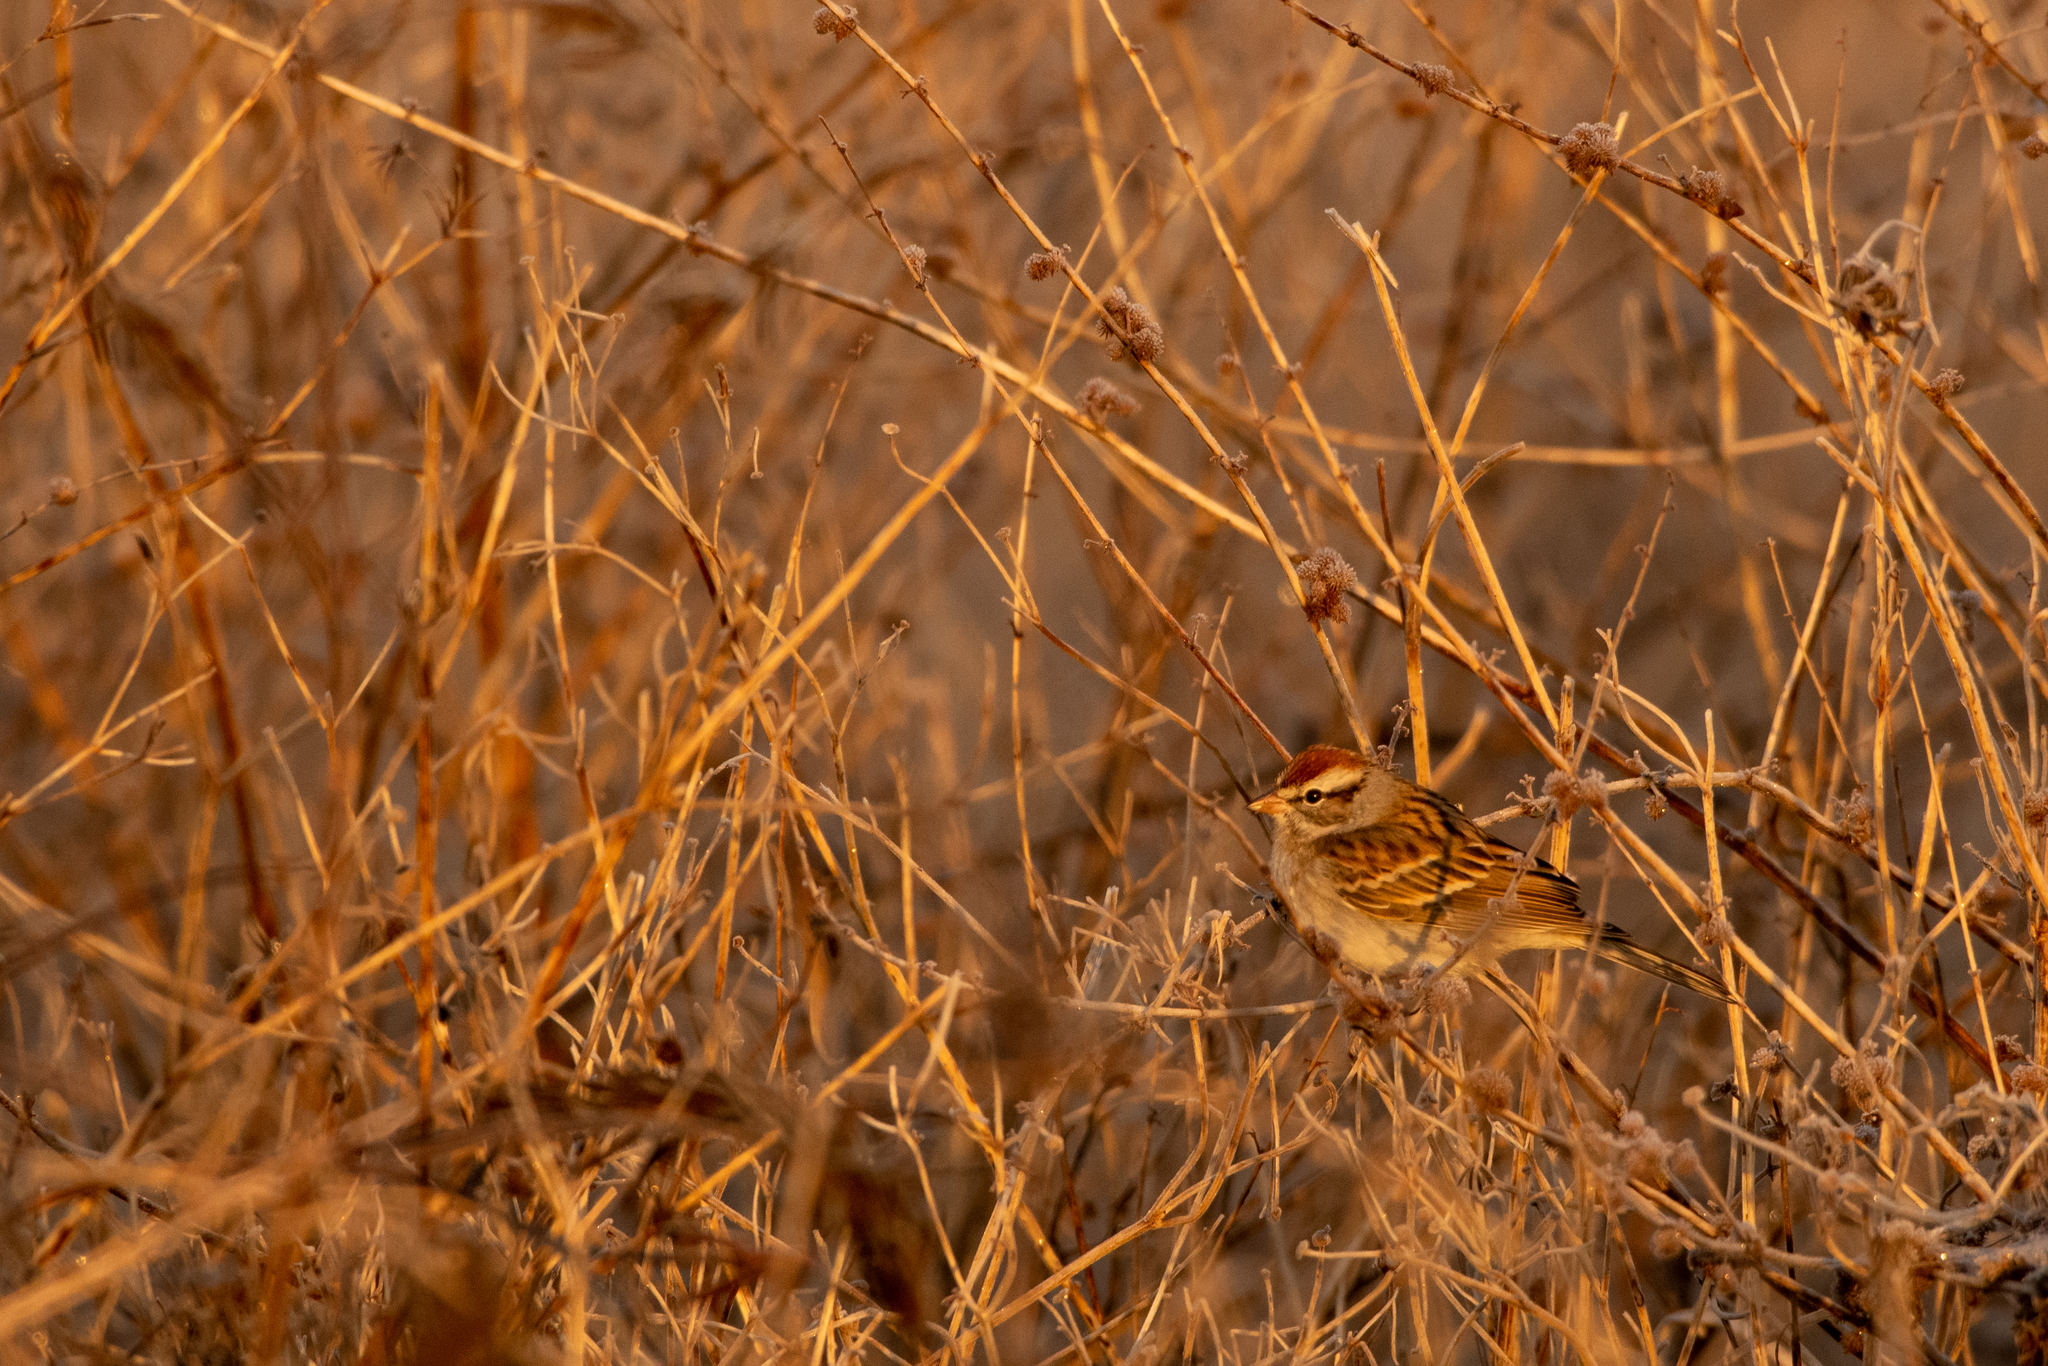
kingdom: Animalia
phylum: Chordata
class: Aves
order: Passeriformes
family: Passerellidae
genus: Spizella
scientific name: Spizella passerina
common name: Chipping sparrow
